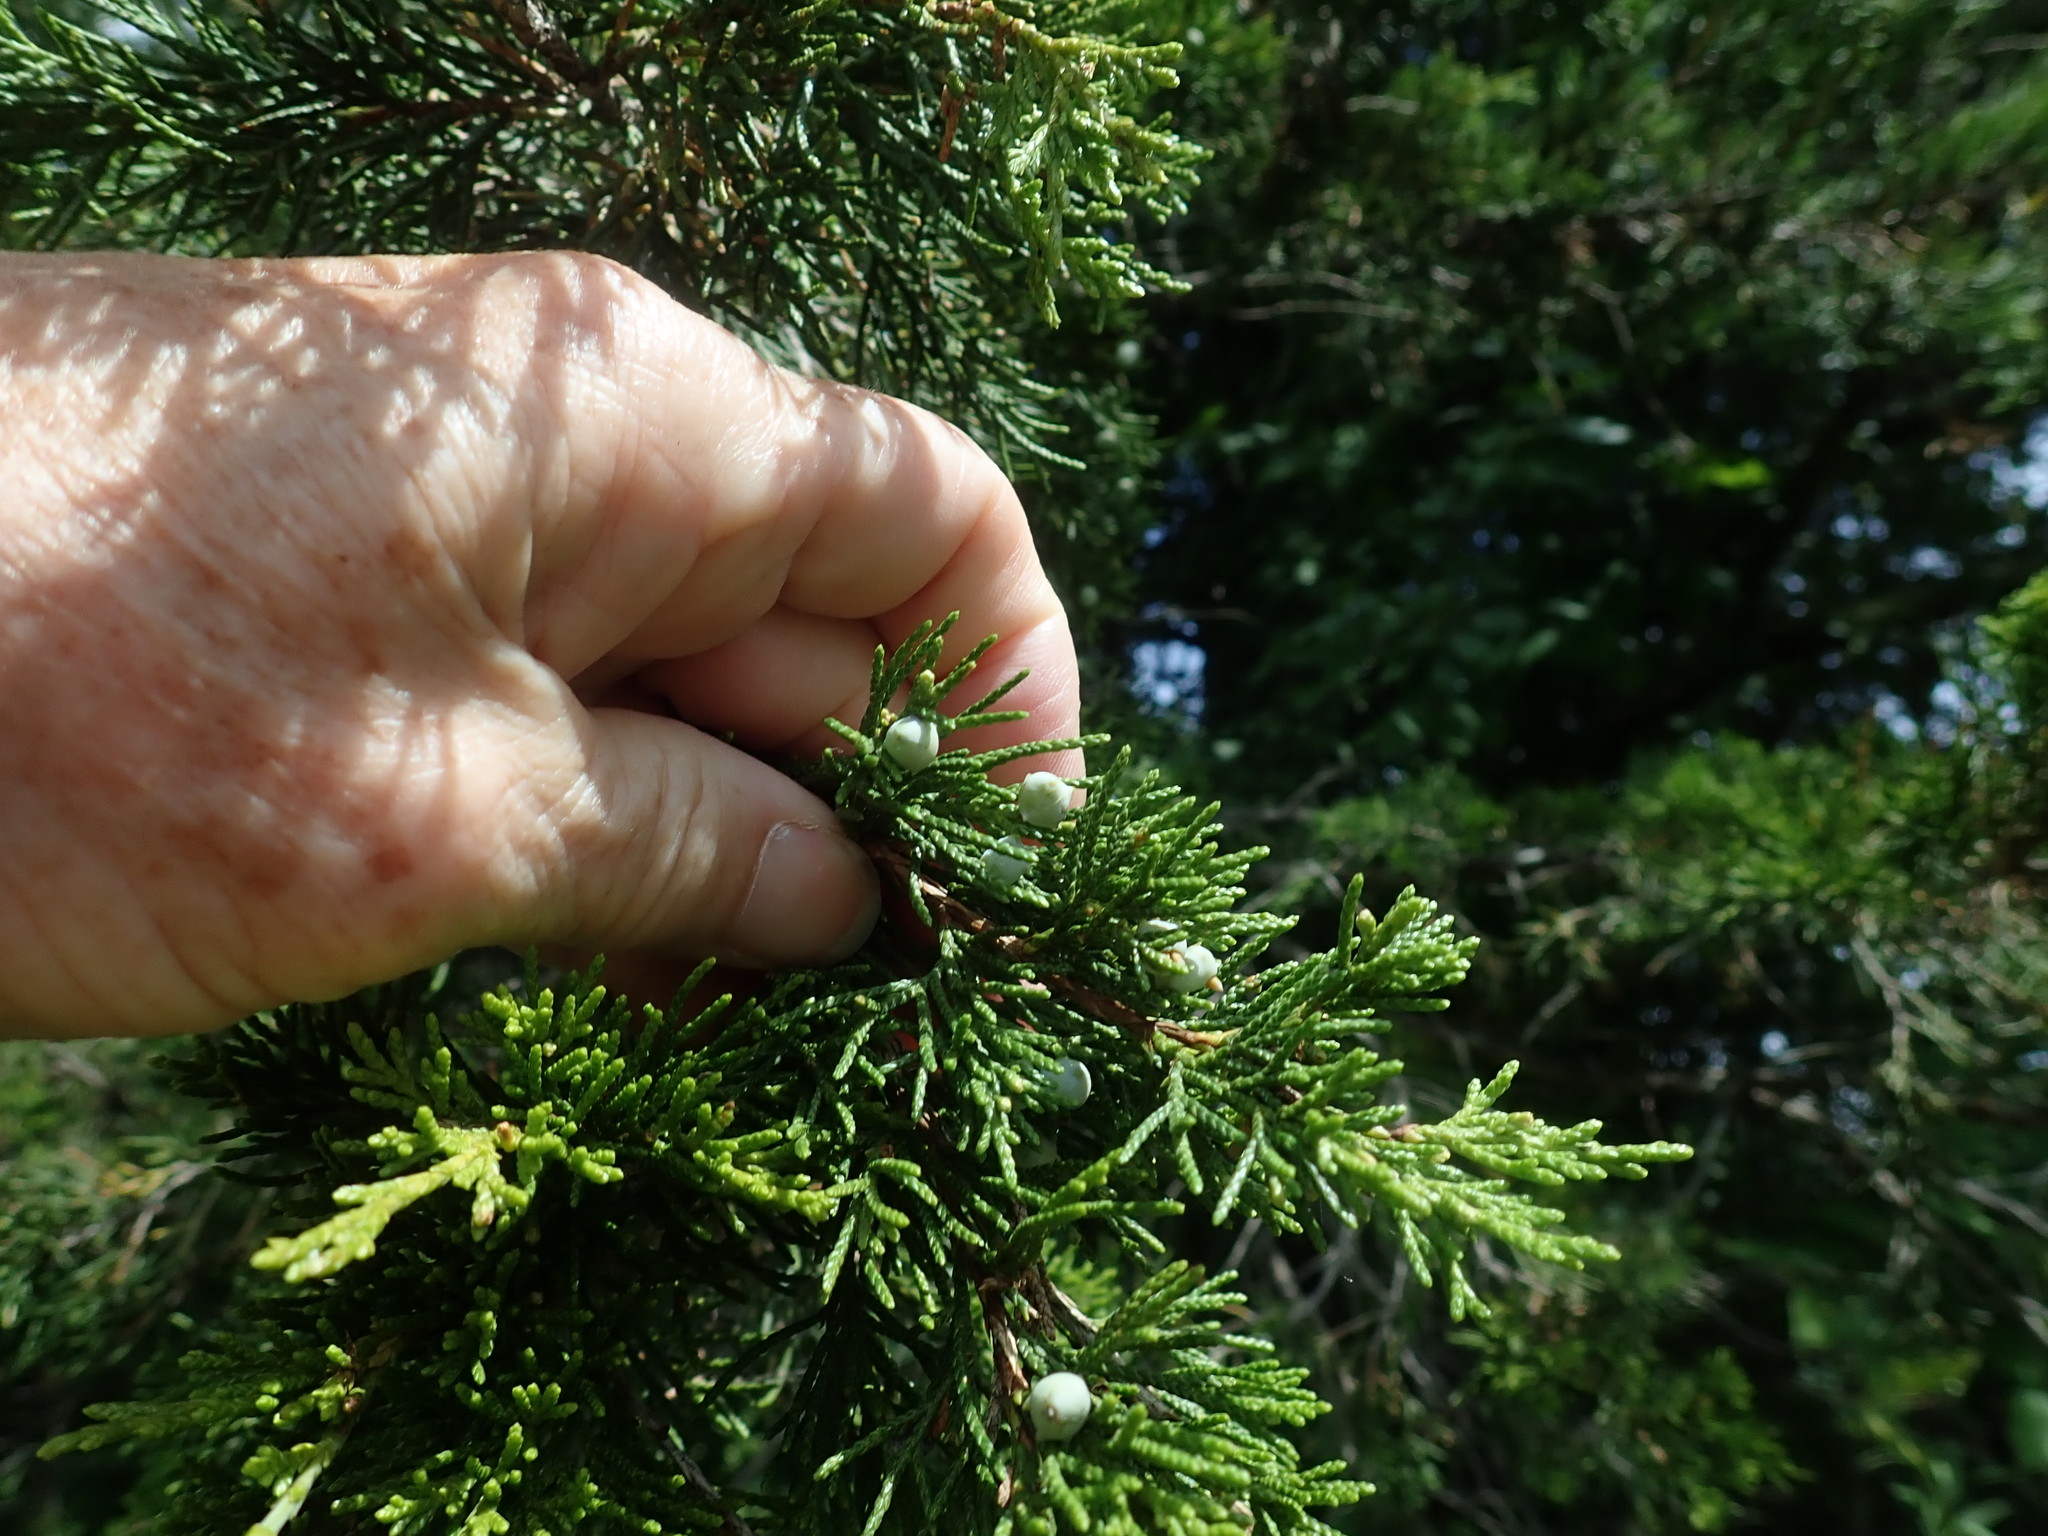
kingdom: Plantae
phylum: Tracheophyta
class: Pinopsida
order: Pinales
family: Cupressaceae
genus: Juniperus
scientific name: Juniperus virginiana
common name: Red juniper
